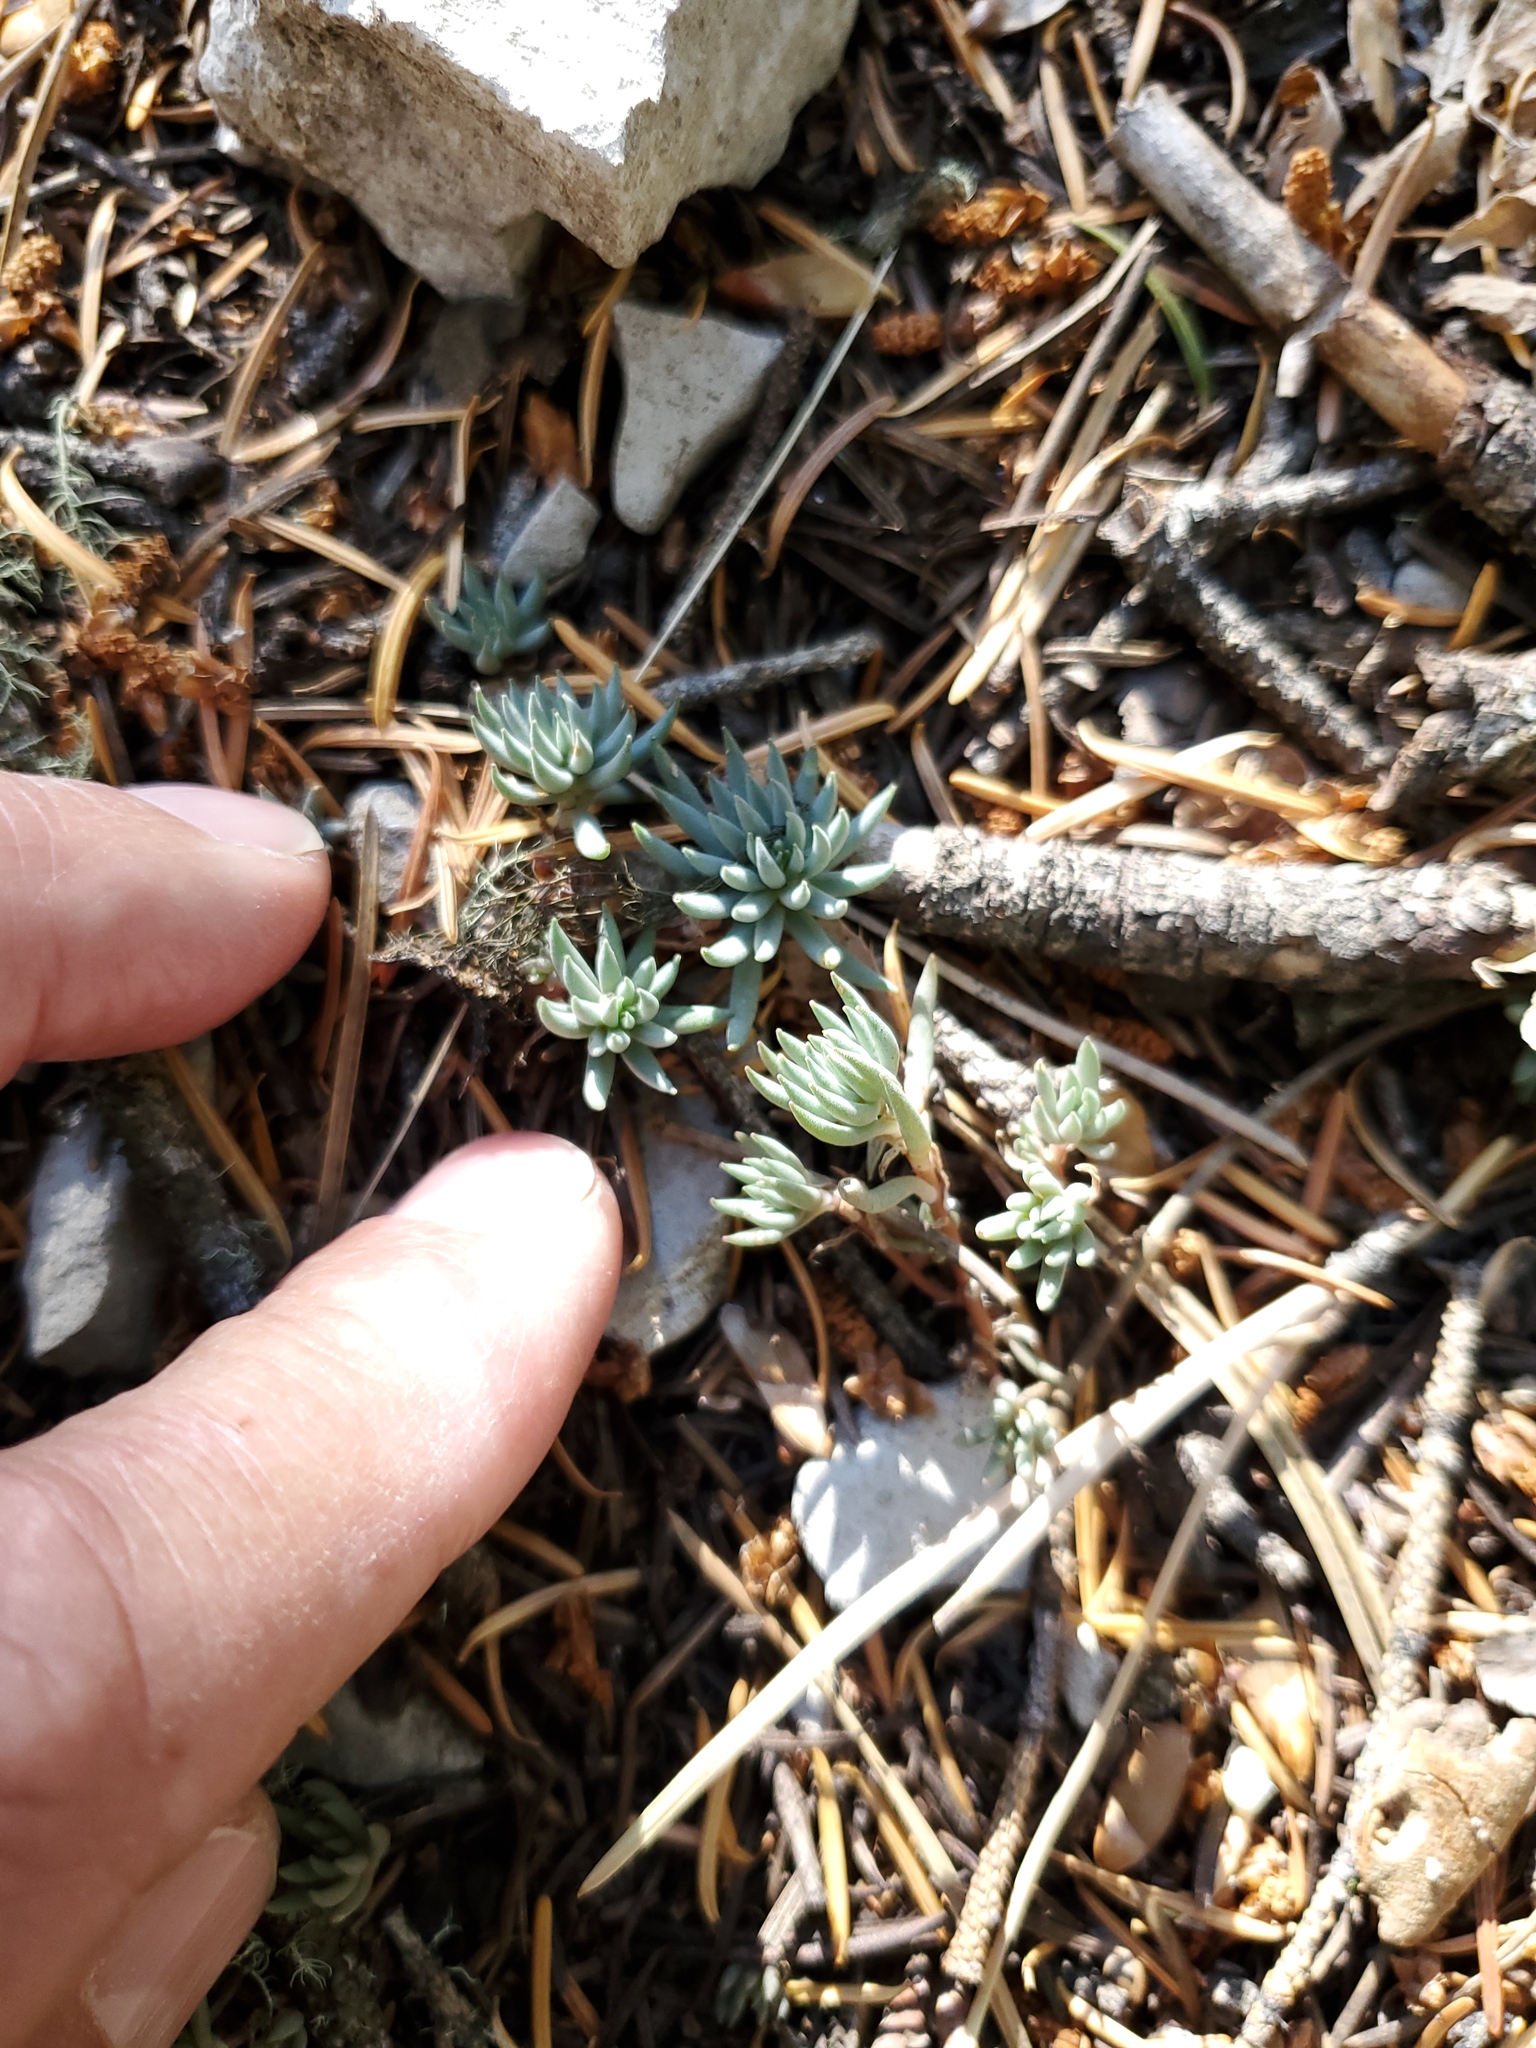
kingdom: Plantae
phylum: Tracheophyta
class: Magnoliopsida
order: Saxifragales
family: Crassulaceae
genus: Sedum
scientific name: Sedum lanceolatum
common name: Common stonecrop
